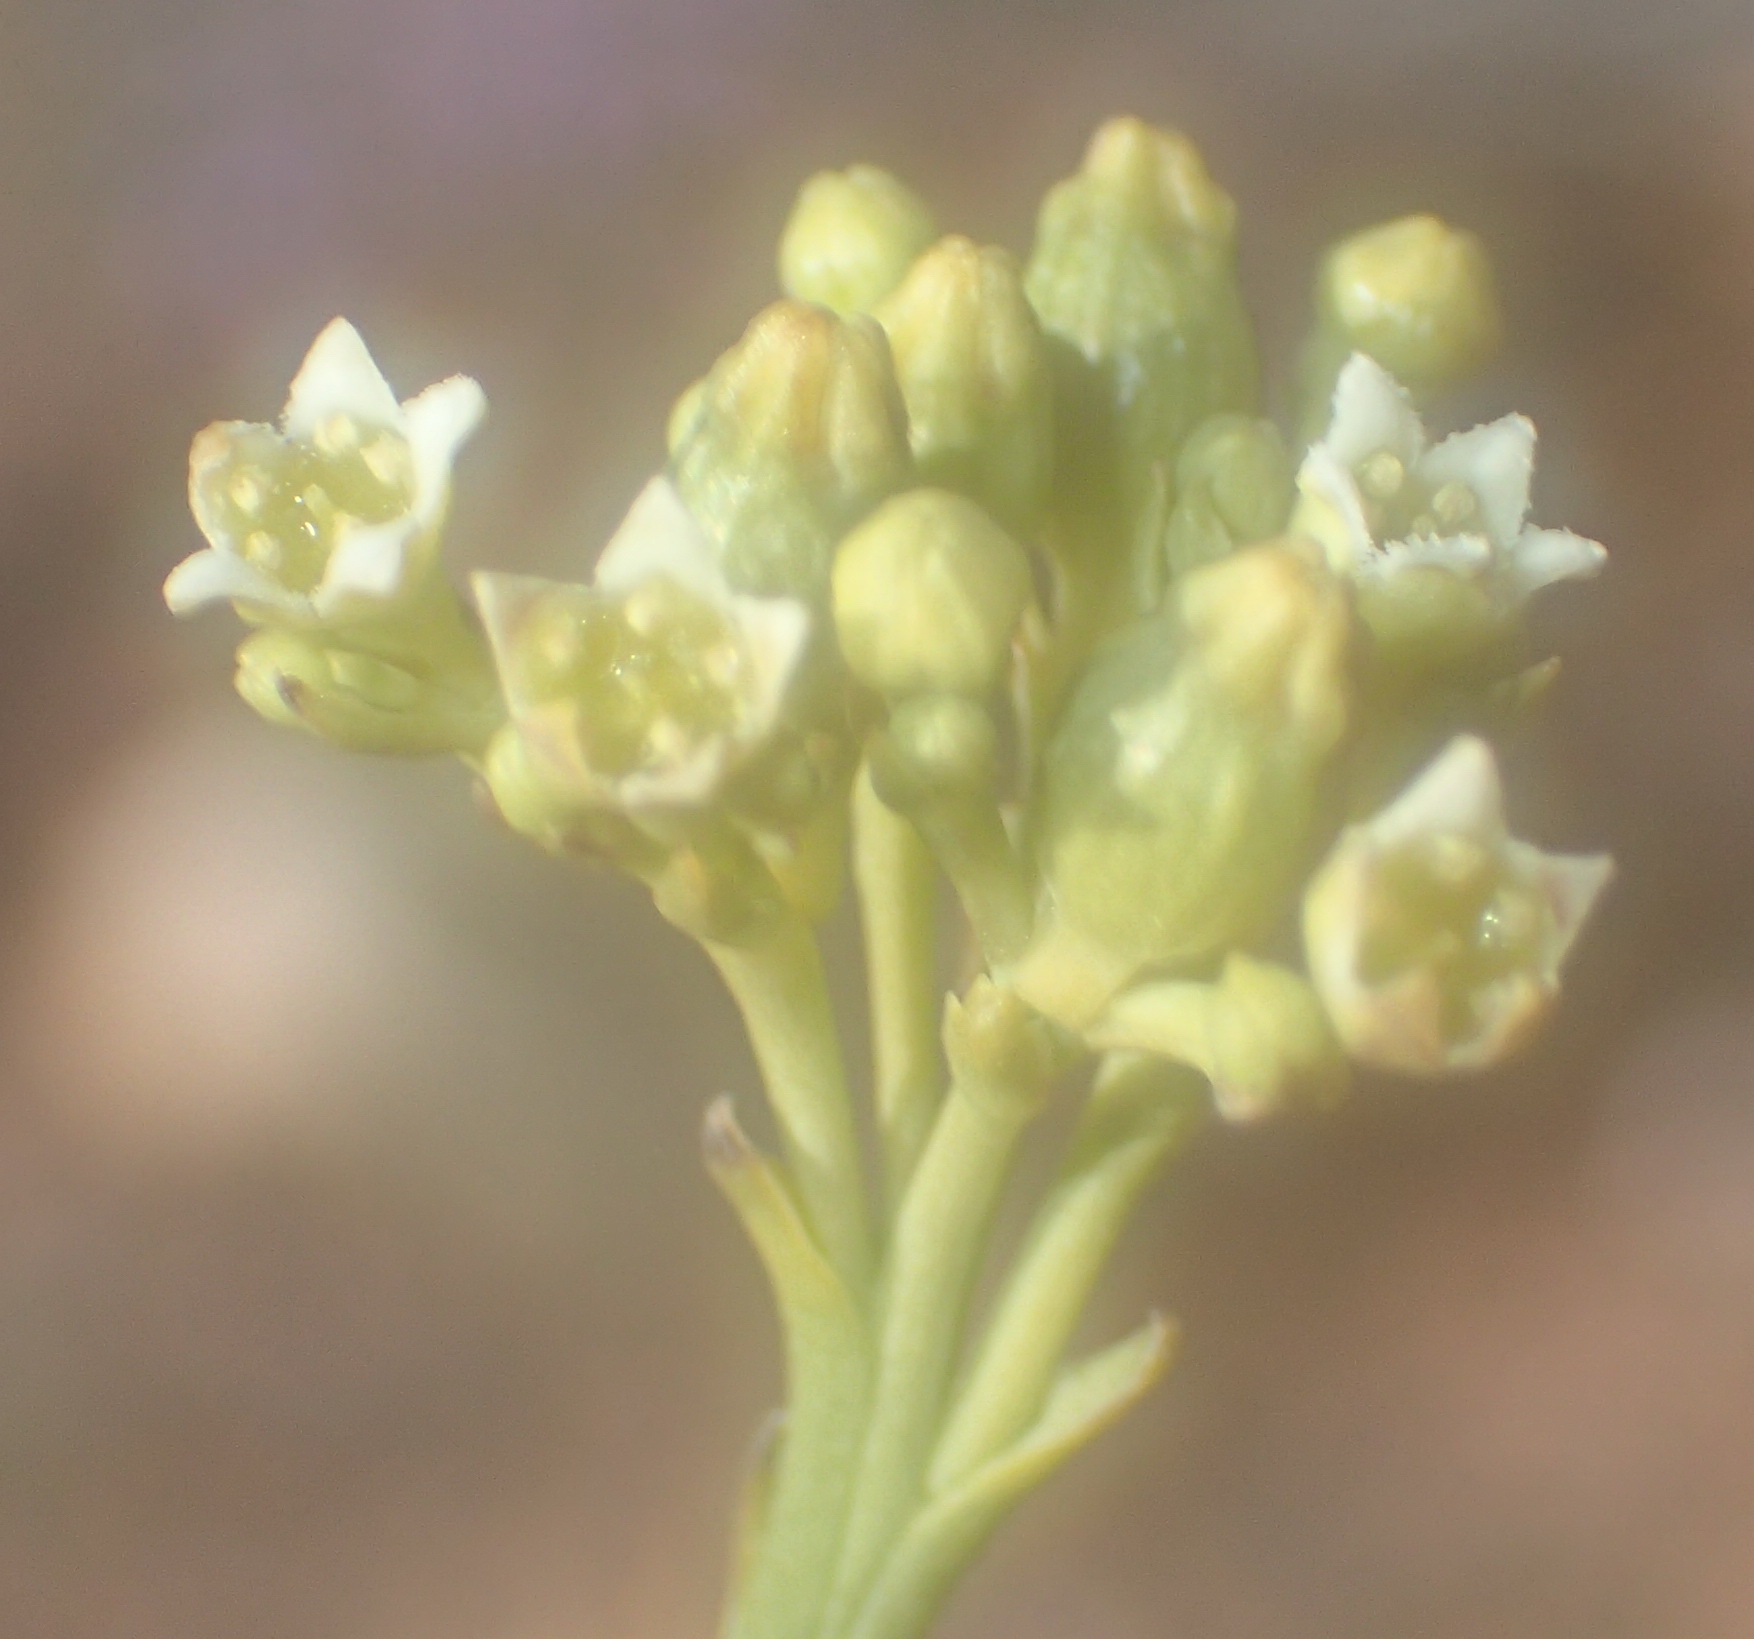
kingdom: Plantae
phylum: Tracheophyta
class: Magnoliopsida
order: Santalales
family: Thesiaceae
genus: Thesium
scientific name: Thesium strictum
